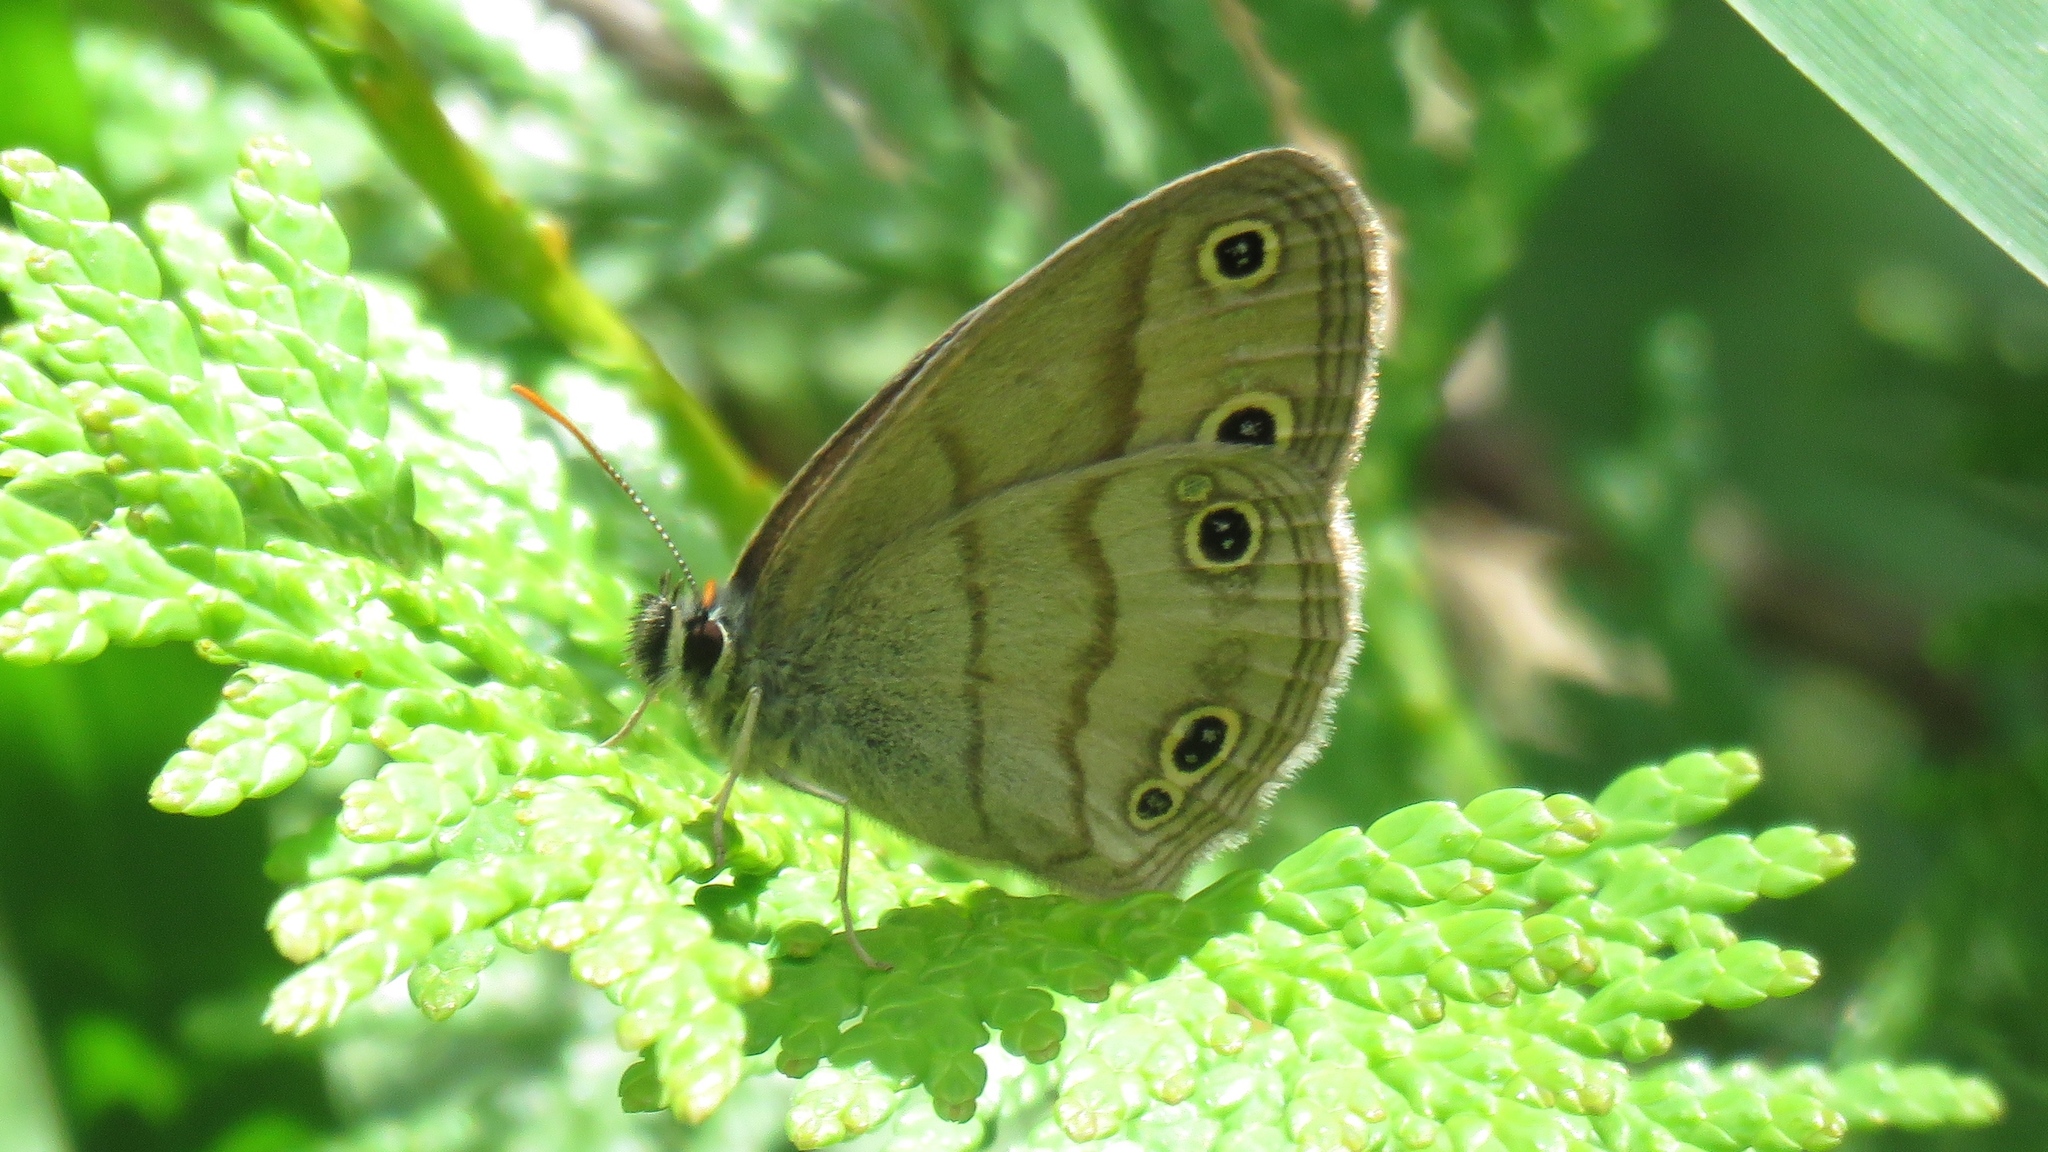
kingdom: Animalia
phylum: Arthropoda
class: Insecta
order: Lepidoptera
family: Nymphalidae
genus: Euptychia
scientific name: Euptychia cymela
